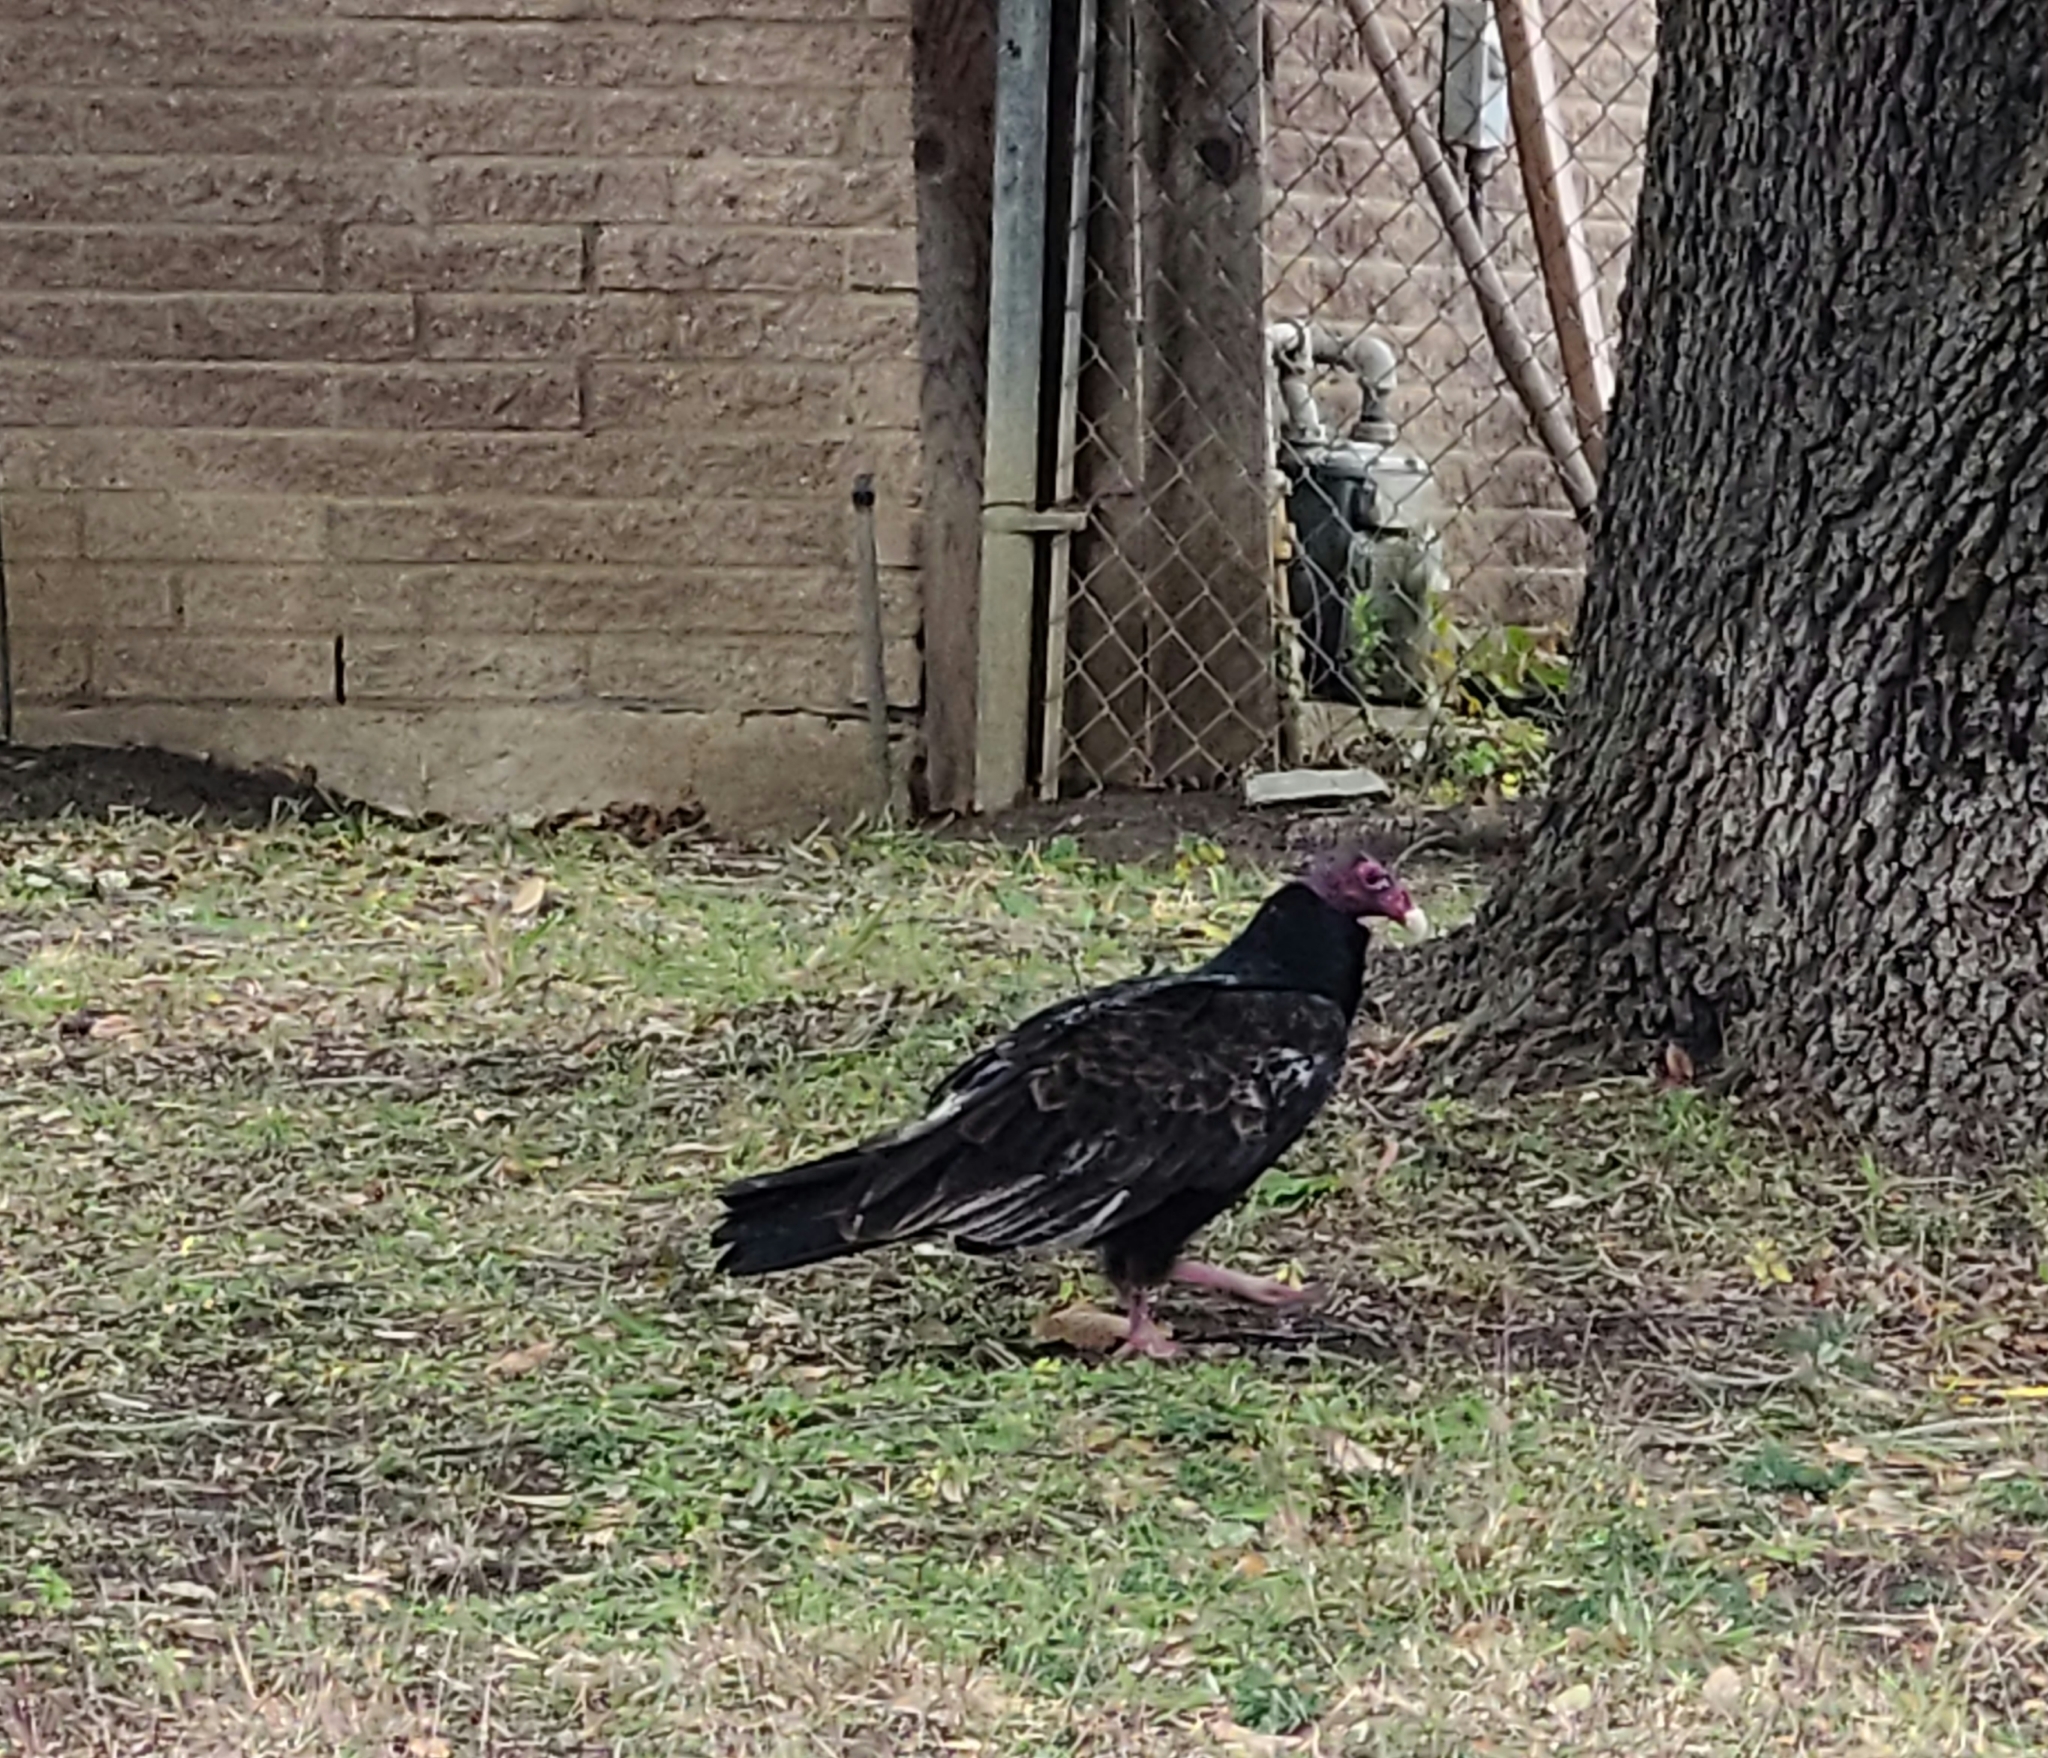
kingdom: Animalia
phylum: Chordata
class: Aves
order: Accipitriformes
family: Cathartidae
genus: Cathartes
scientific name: Cathartes aura
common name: Turkey vulture
